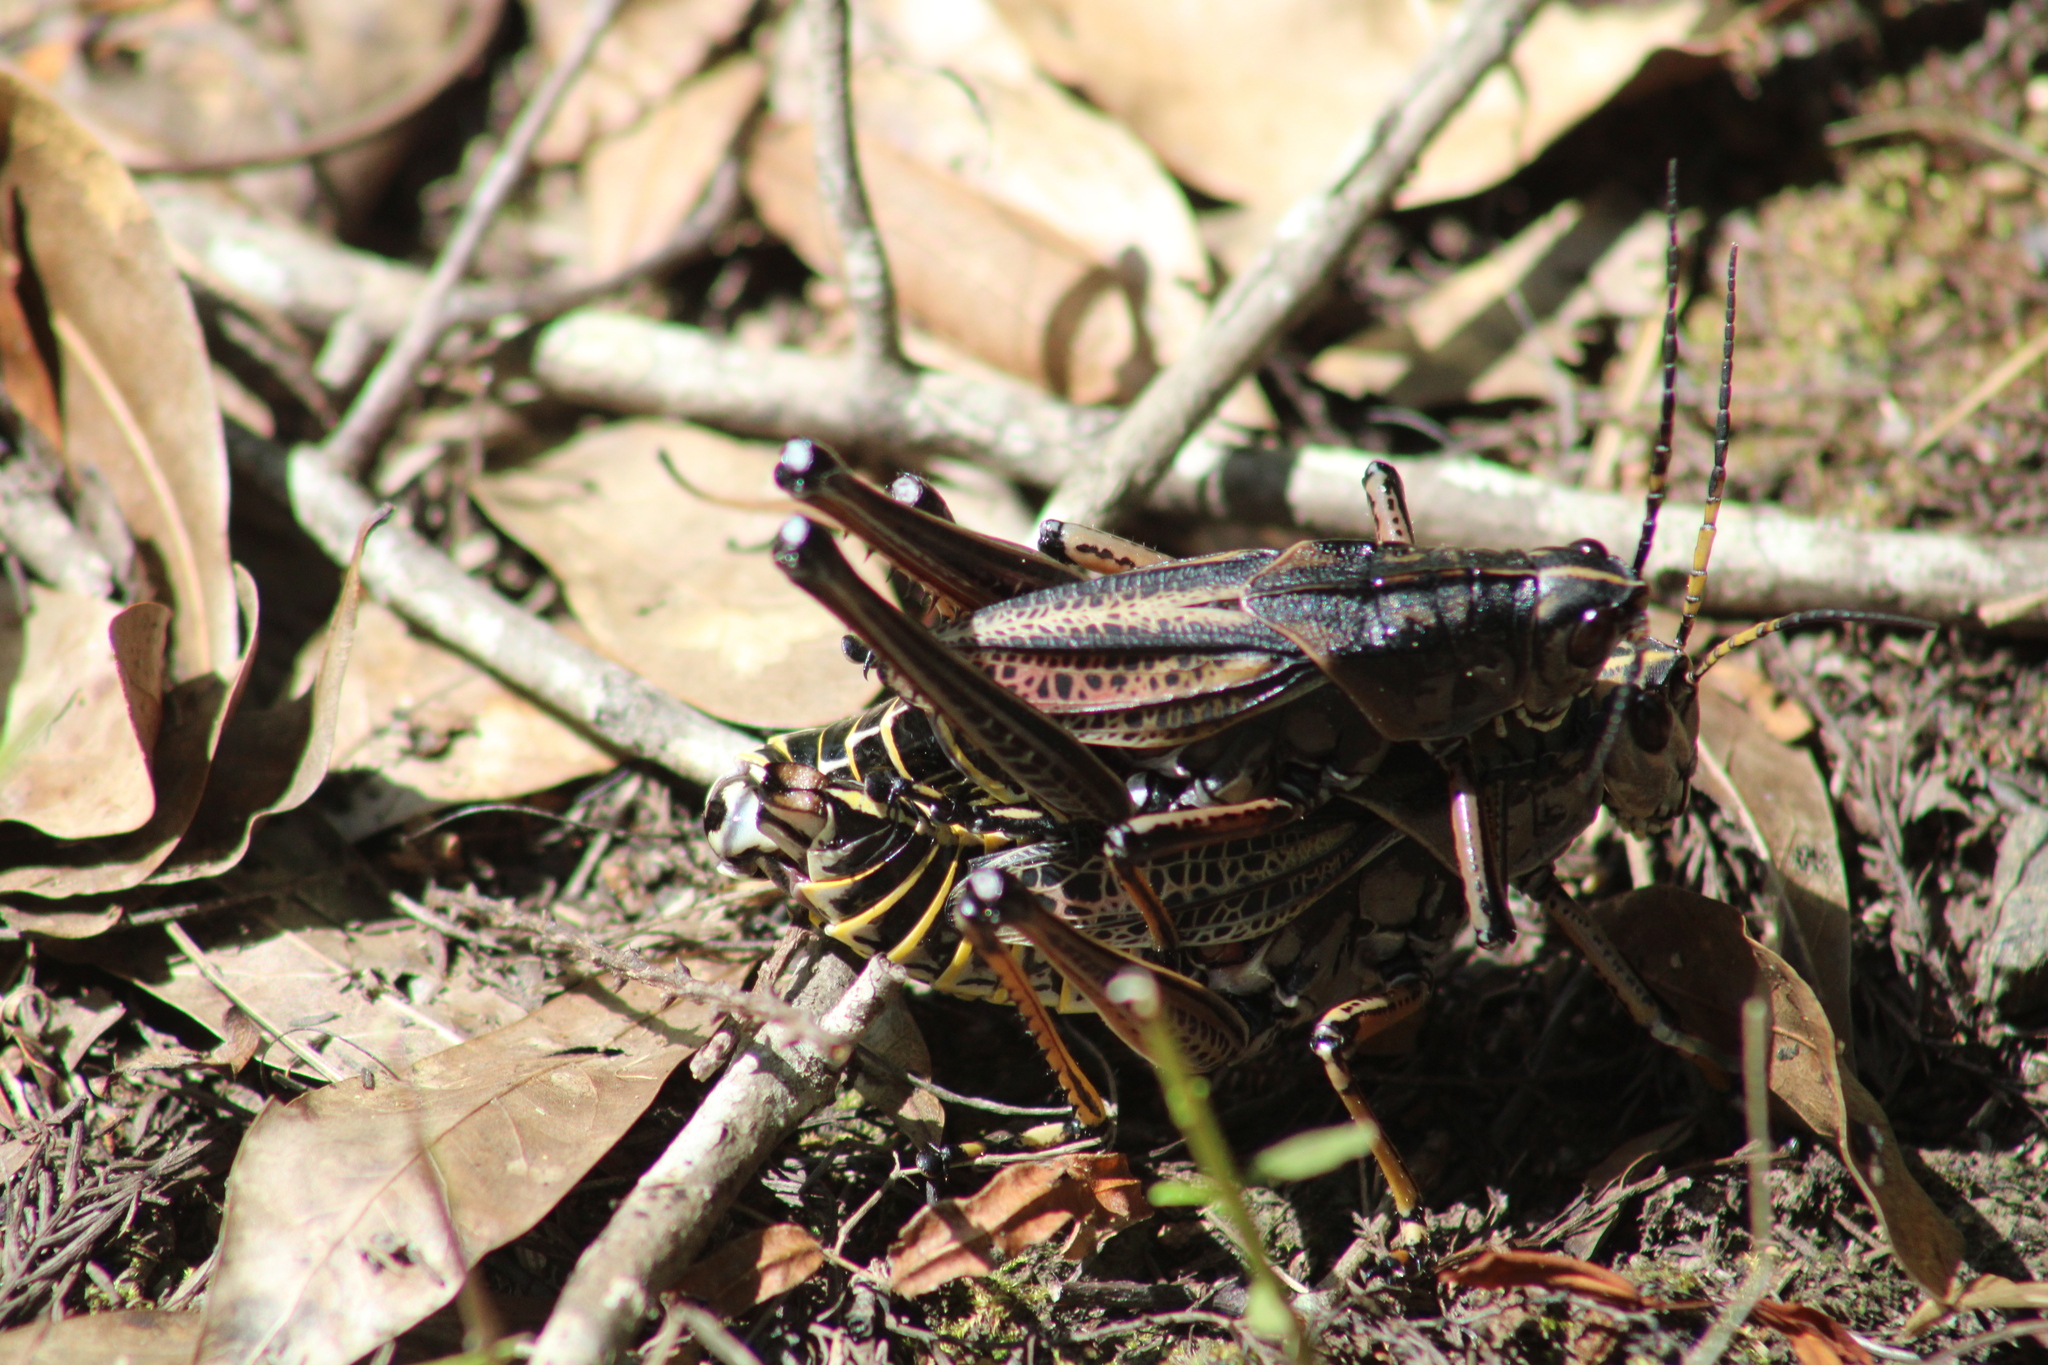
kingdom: Animalia
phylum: Arthropoda
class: Insecta
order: Orthoptera
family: Romaleidae
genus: Romalea
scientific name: Romalea microptera
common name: Eastern lubber grasshopper
